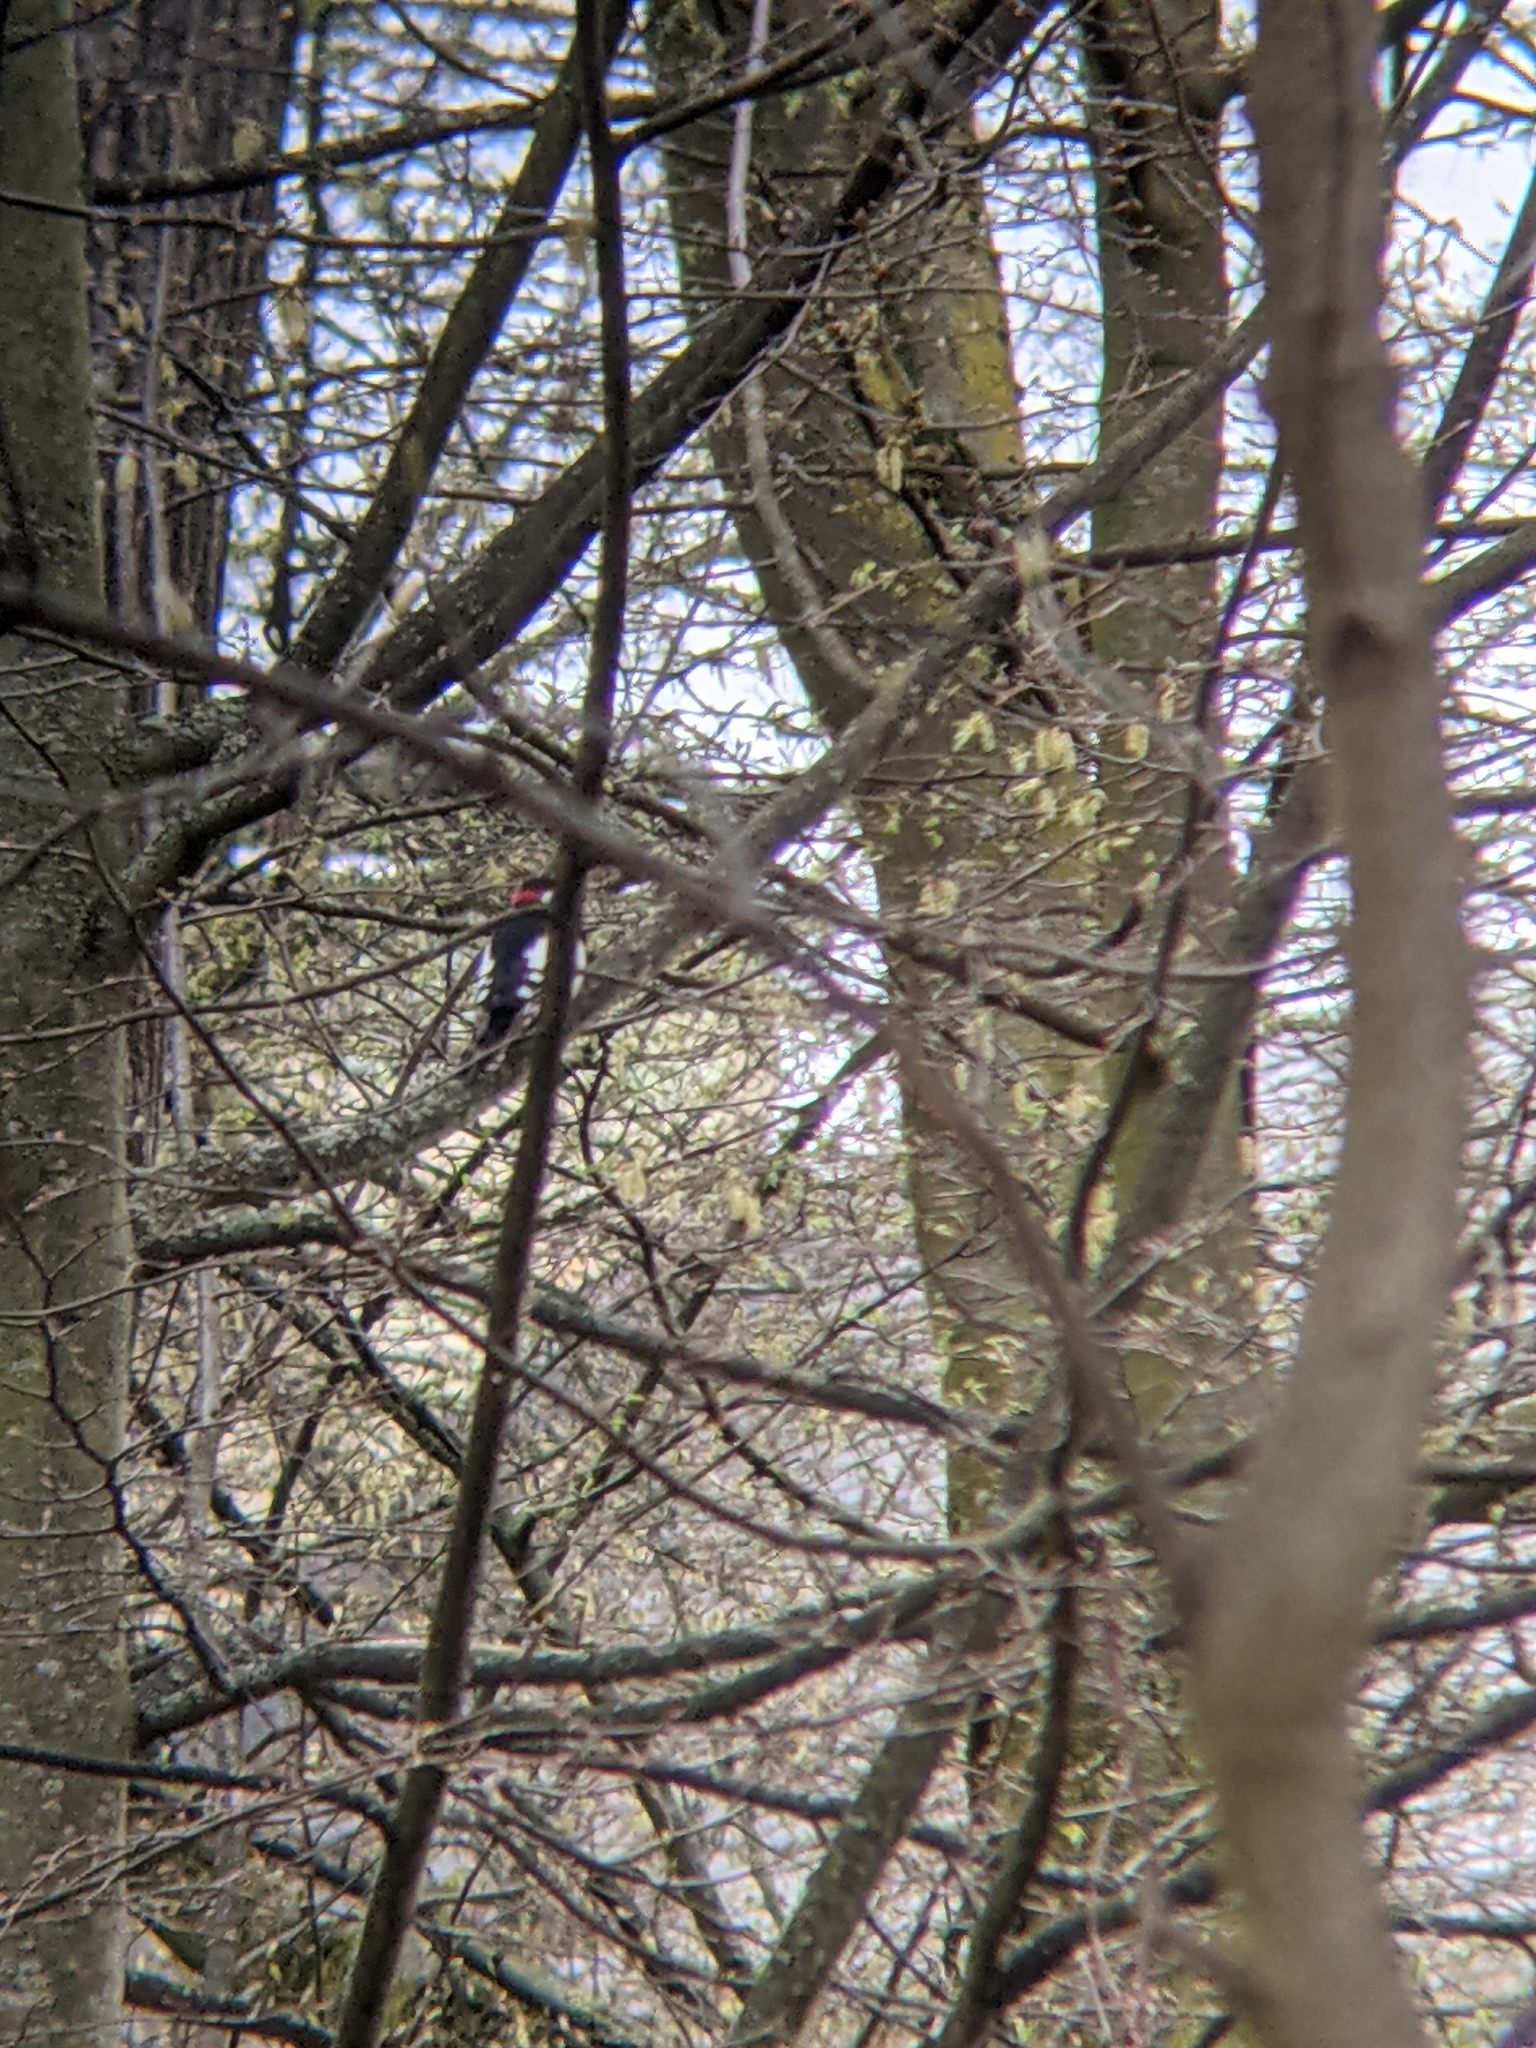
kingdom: Animalia
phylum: Chordata
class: Aves
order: Piciformes
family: Picidae
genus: Dendrocopos
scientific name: Dendrocopos major
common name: Great spotted woodpecker
